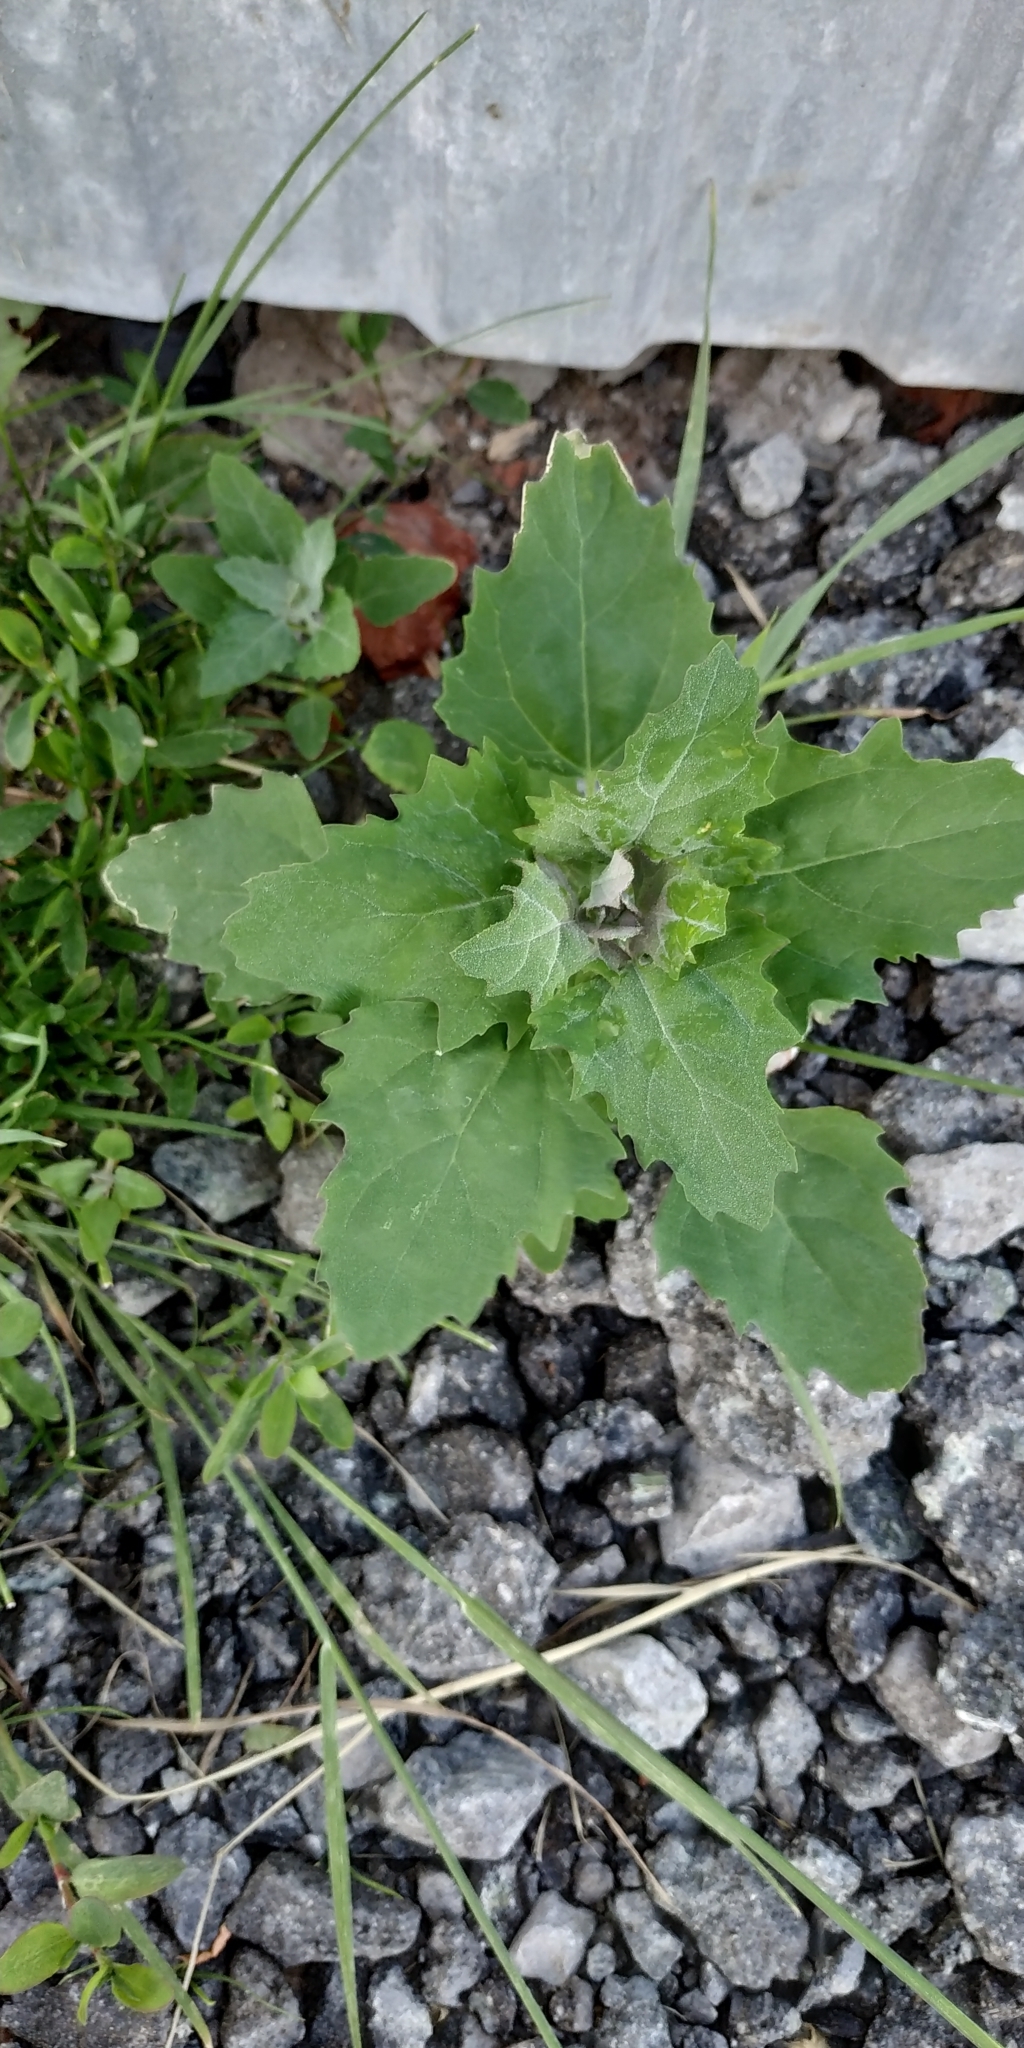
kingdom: Plantae
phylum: Tracheophyta
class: Magnoliopsida
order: Caryophyllales
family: Amaranthaceae
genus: Chenopodium
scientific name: Chenopodium album
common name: Fat-hen
